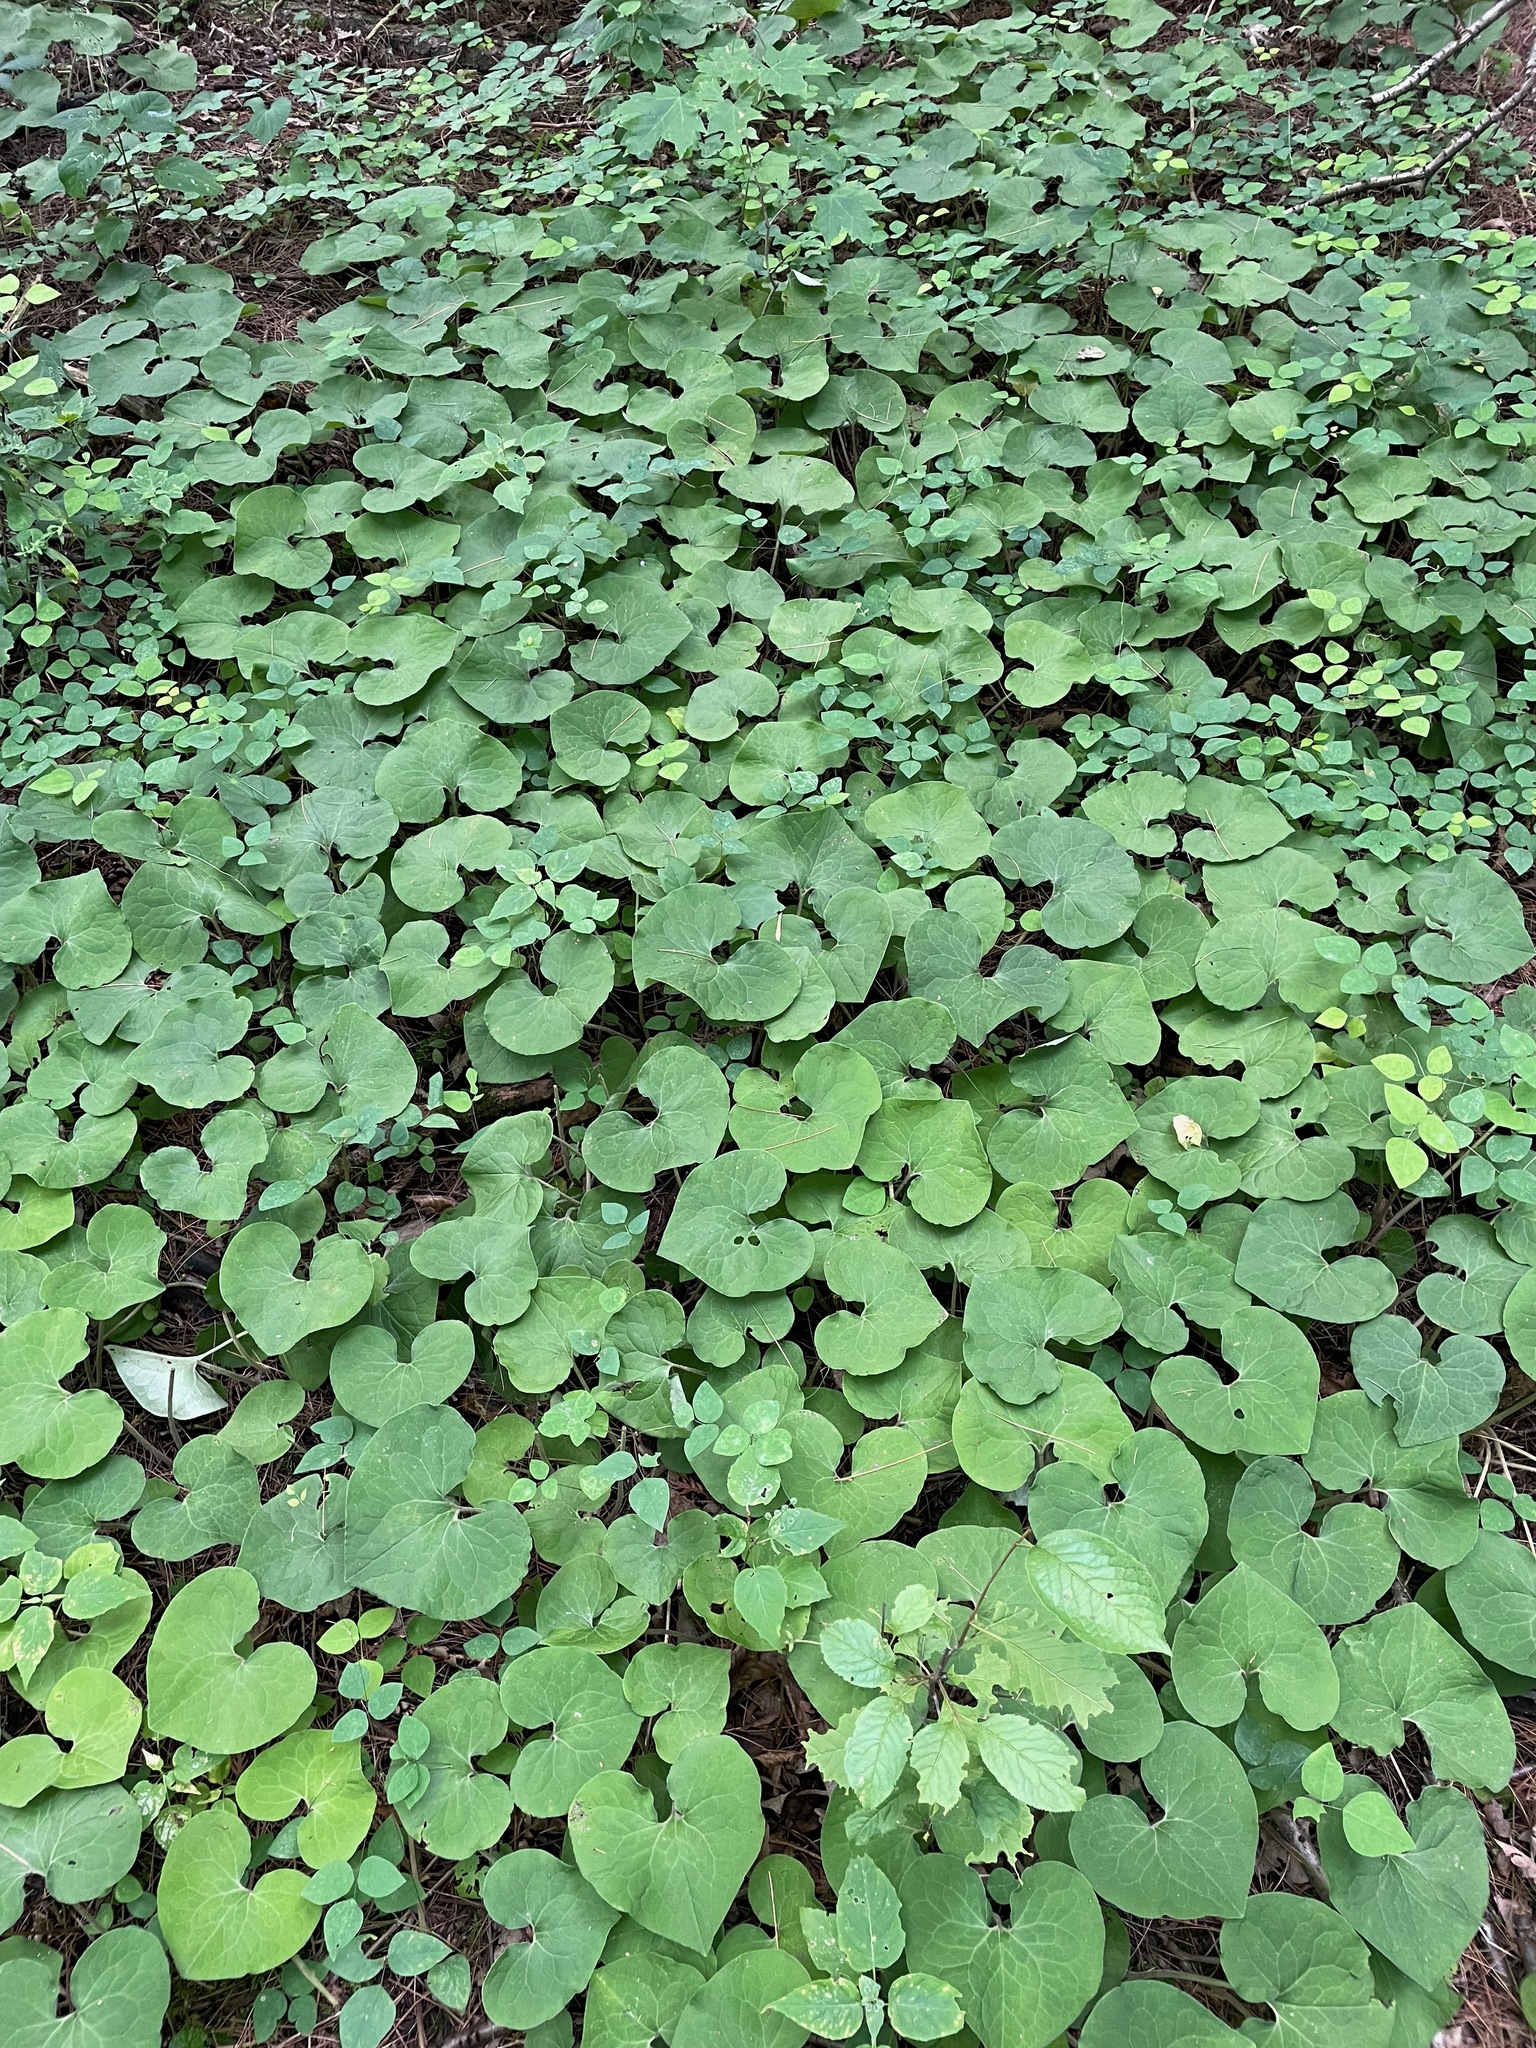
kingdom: Plantae
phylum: Tracheophyta
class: Magnoliopsida
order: Piperales
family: Aristolochiaceae
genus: Asarum
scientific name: Asarum canadense
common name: Wild ginger
